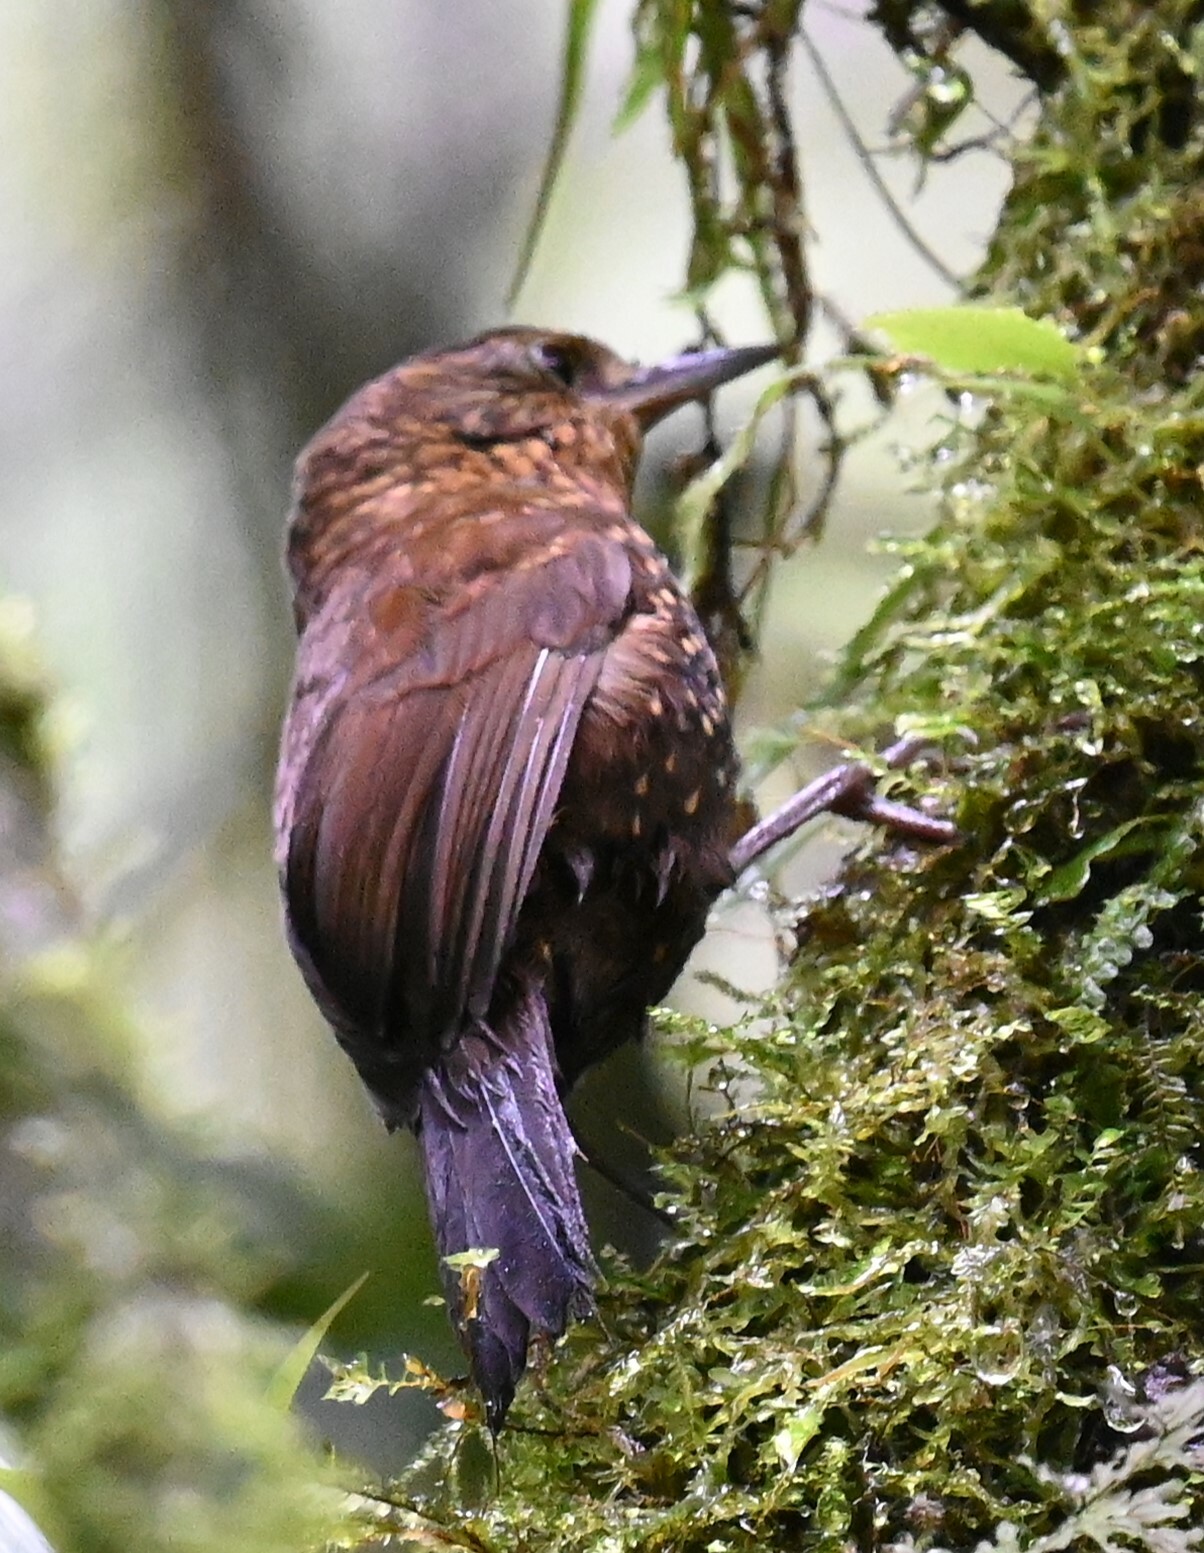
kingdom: Animalia
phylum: Chordata
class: Aves
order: Passeriformes
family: Furnariidae
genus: Premnoplex
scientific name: Premnoplex brunnescens
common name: Spotted barbtail
